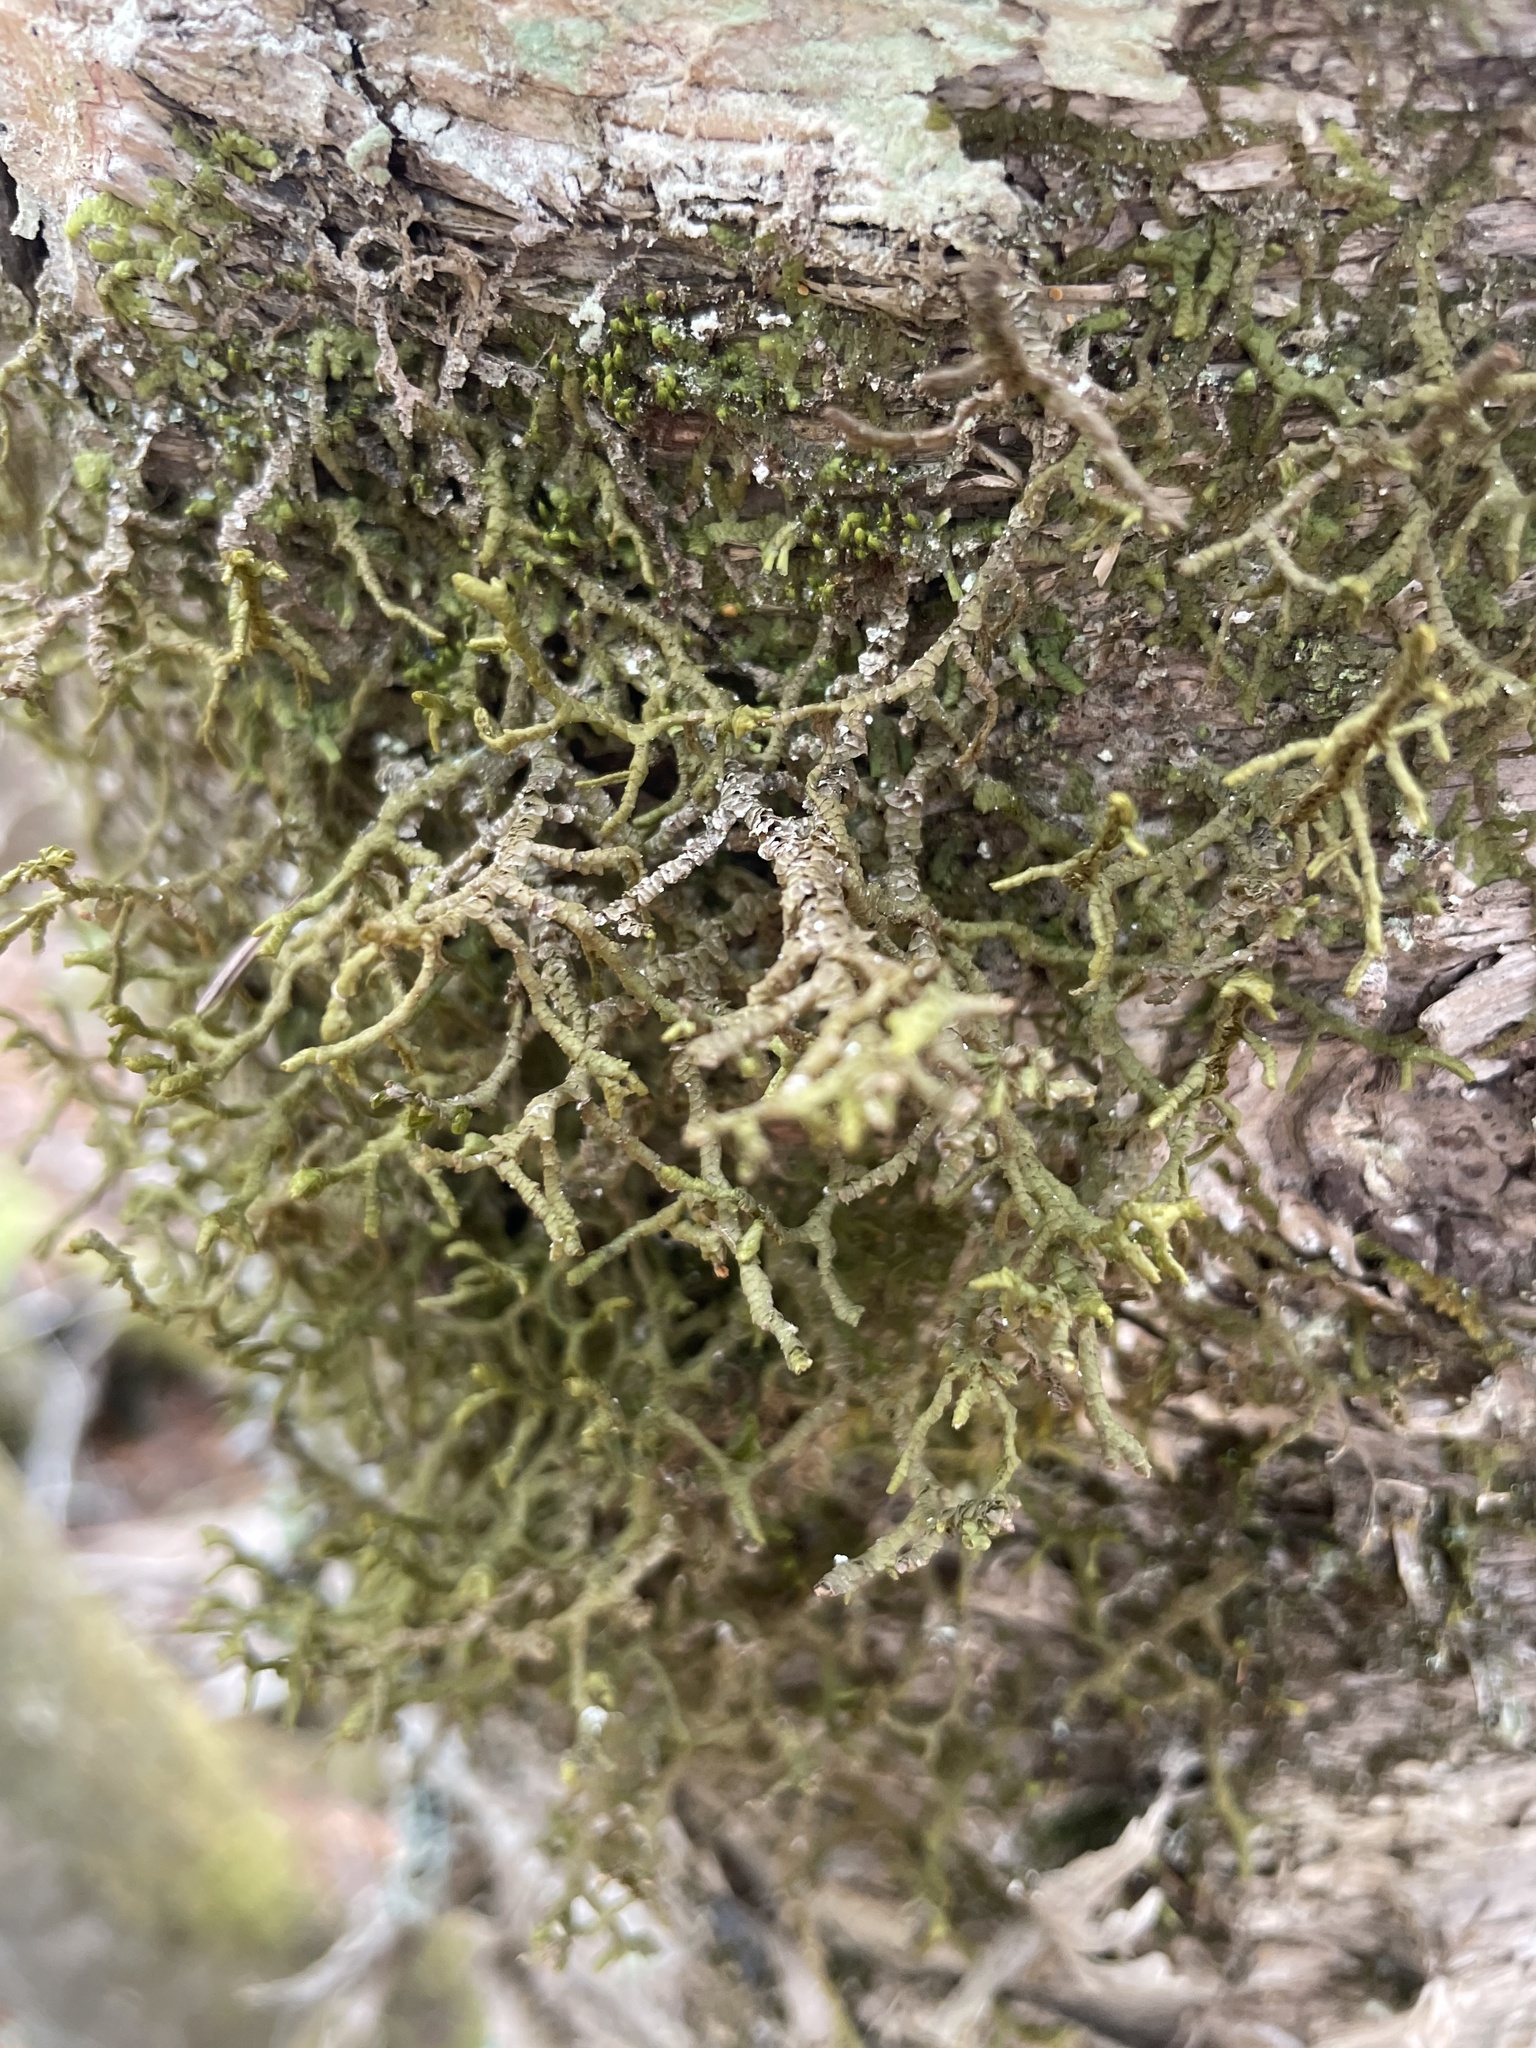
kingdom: Plantae
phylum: Marchantiophyta
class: Jungermanniopsida
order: Porellales
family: Porellaceae
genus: Porella
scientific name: Porella platyphylla
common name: Wall scalewort
